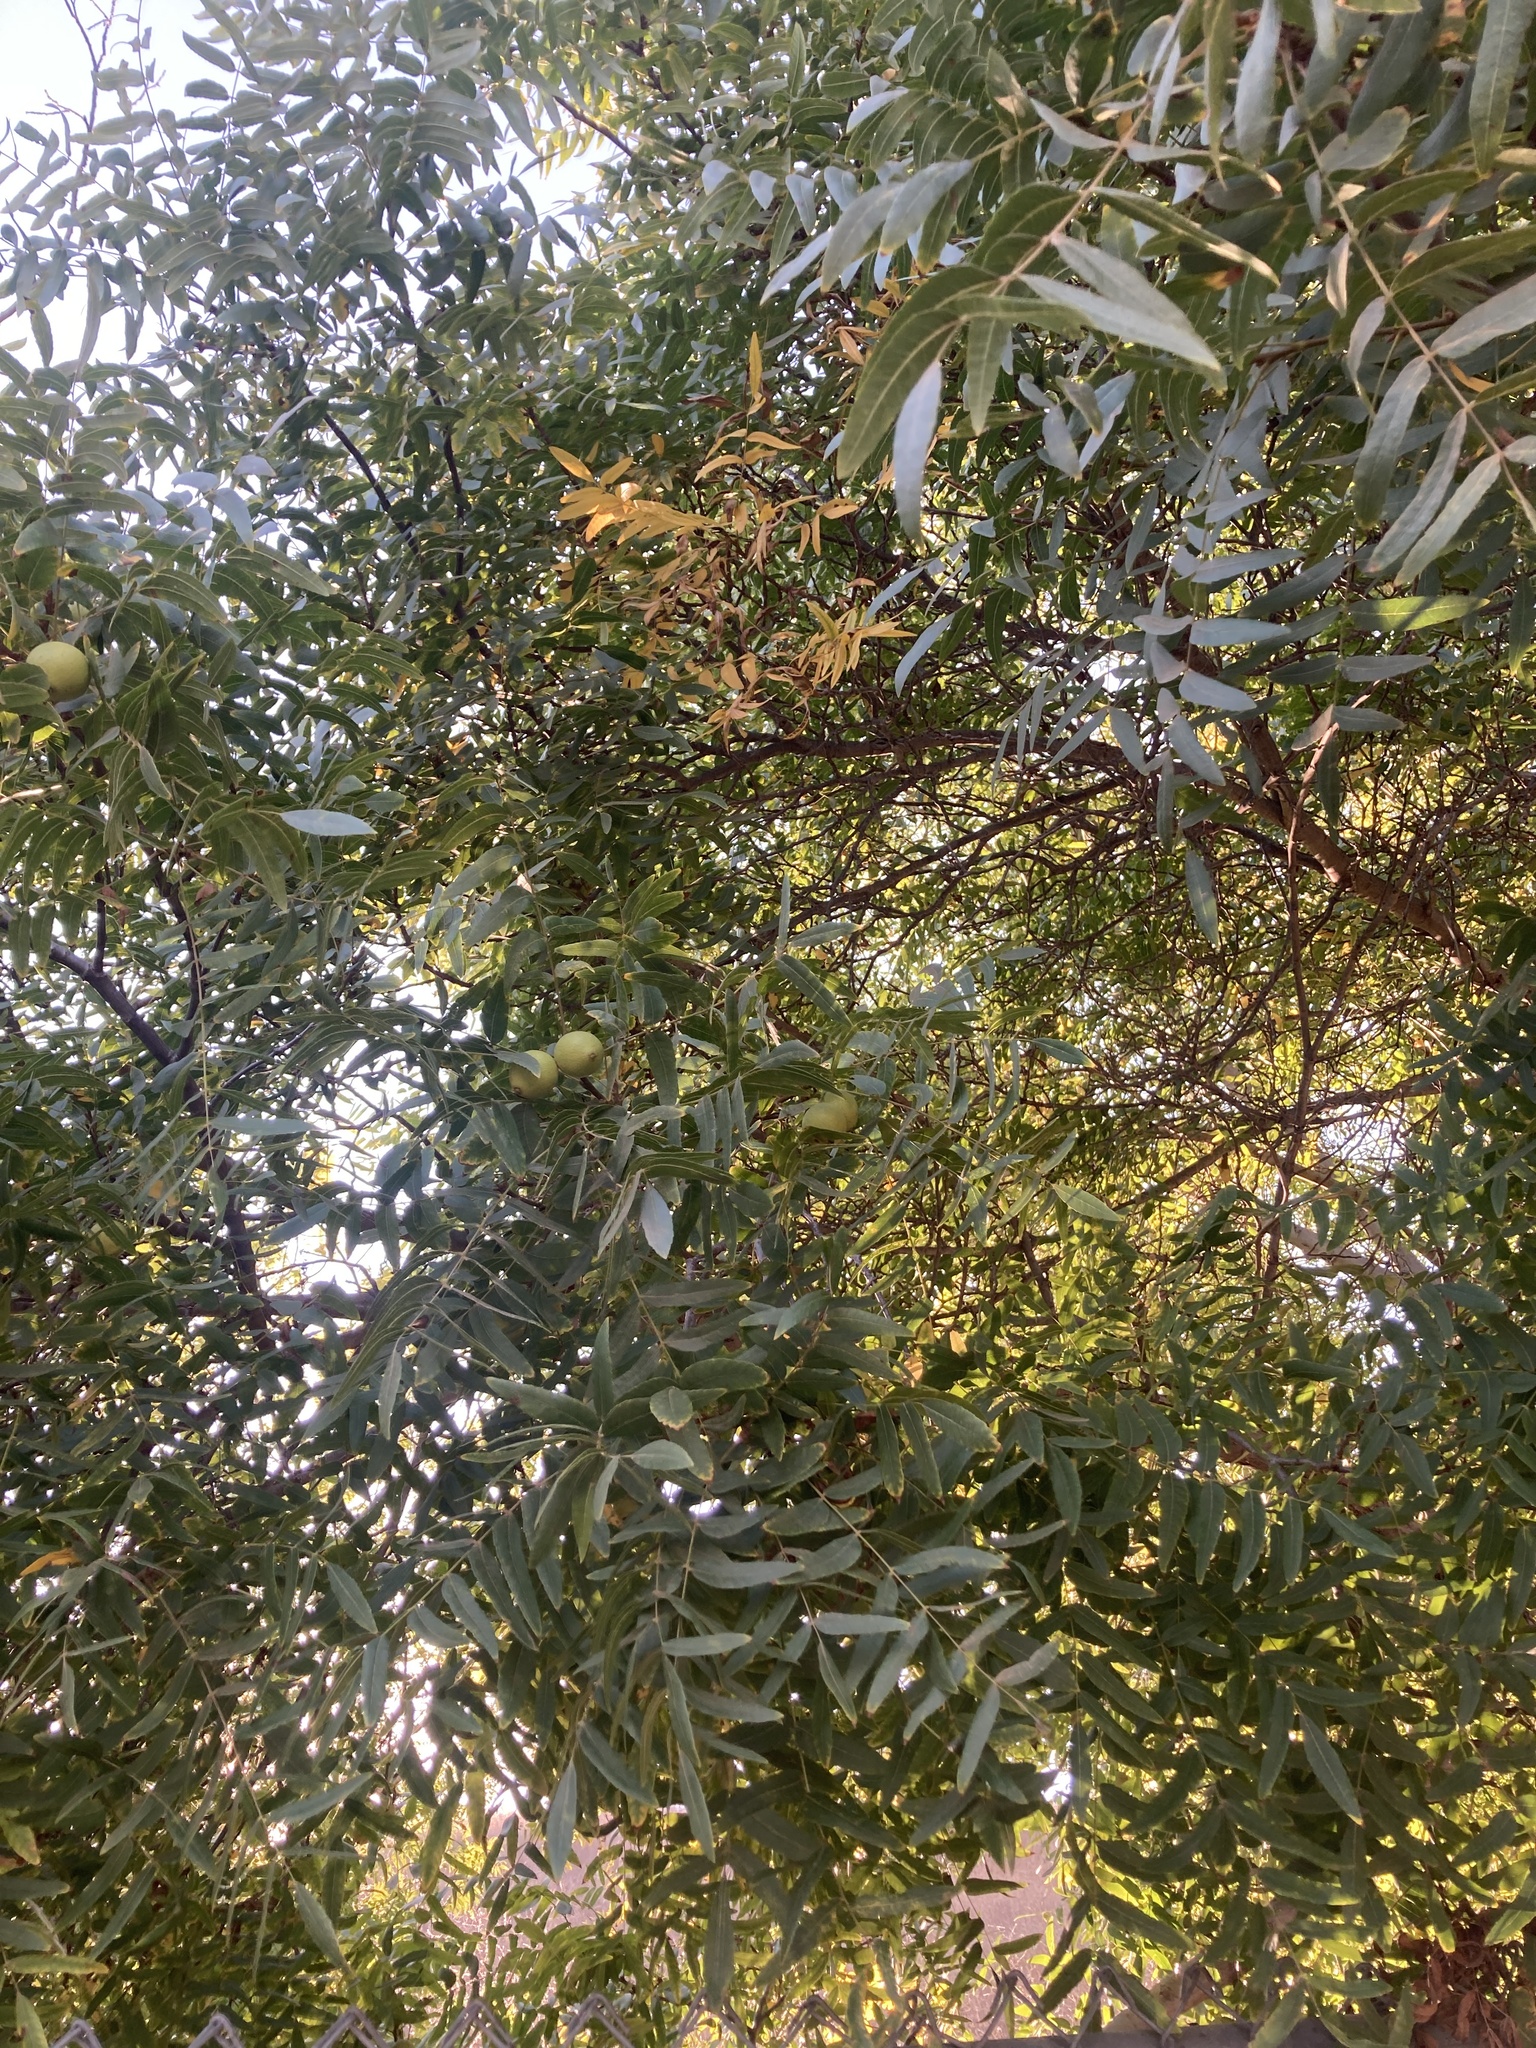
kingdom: Plantae
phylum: Tracheophyta
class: Magnoliopsida
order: Fagales
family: Juglandaceae
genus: Juglans
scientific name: Juglans californica
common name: Southern california black walnut
